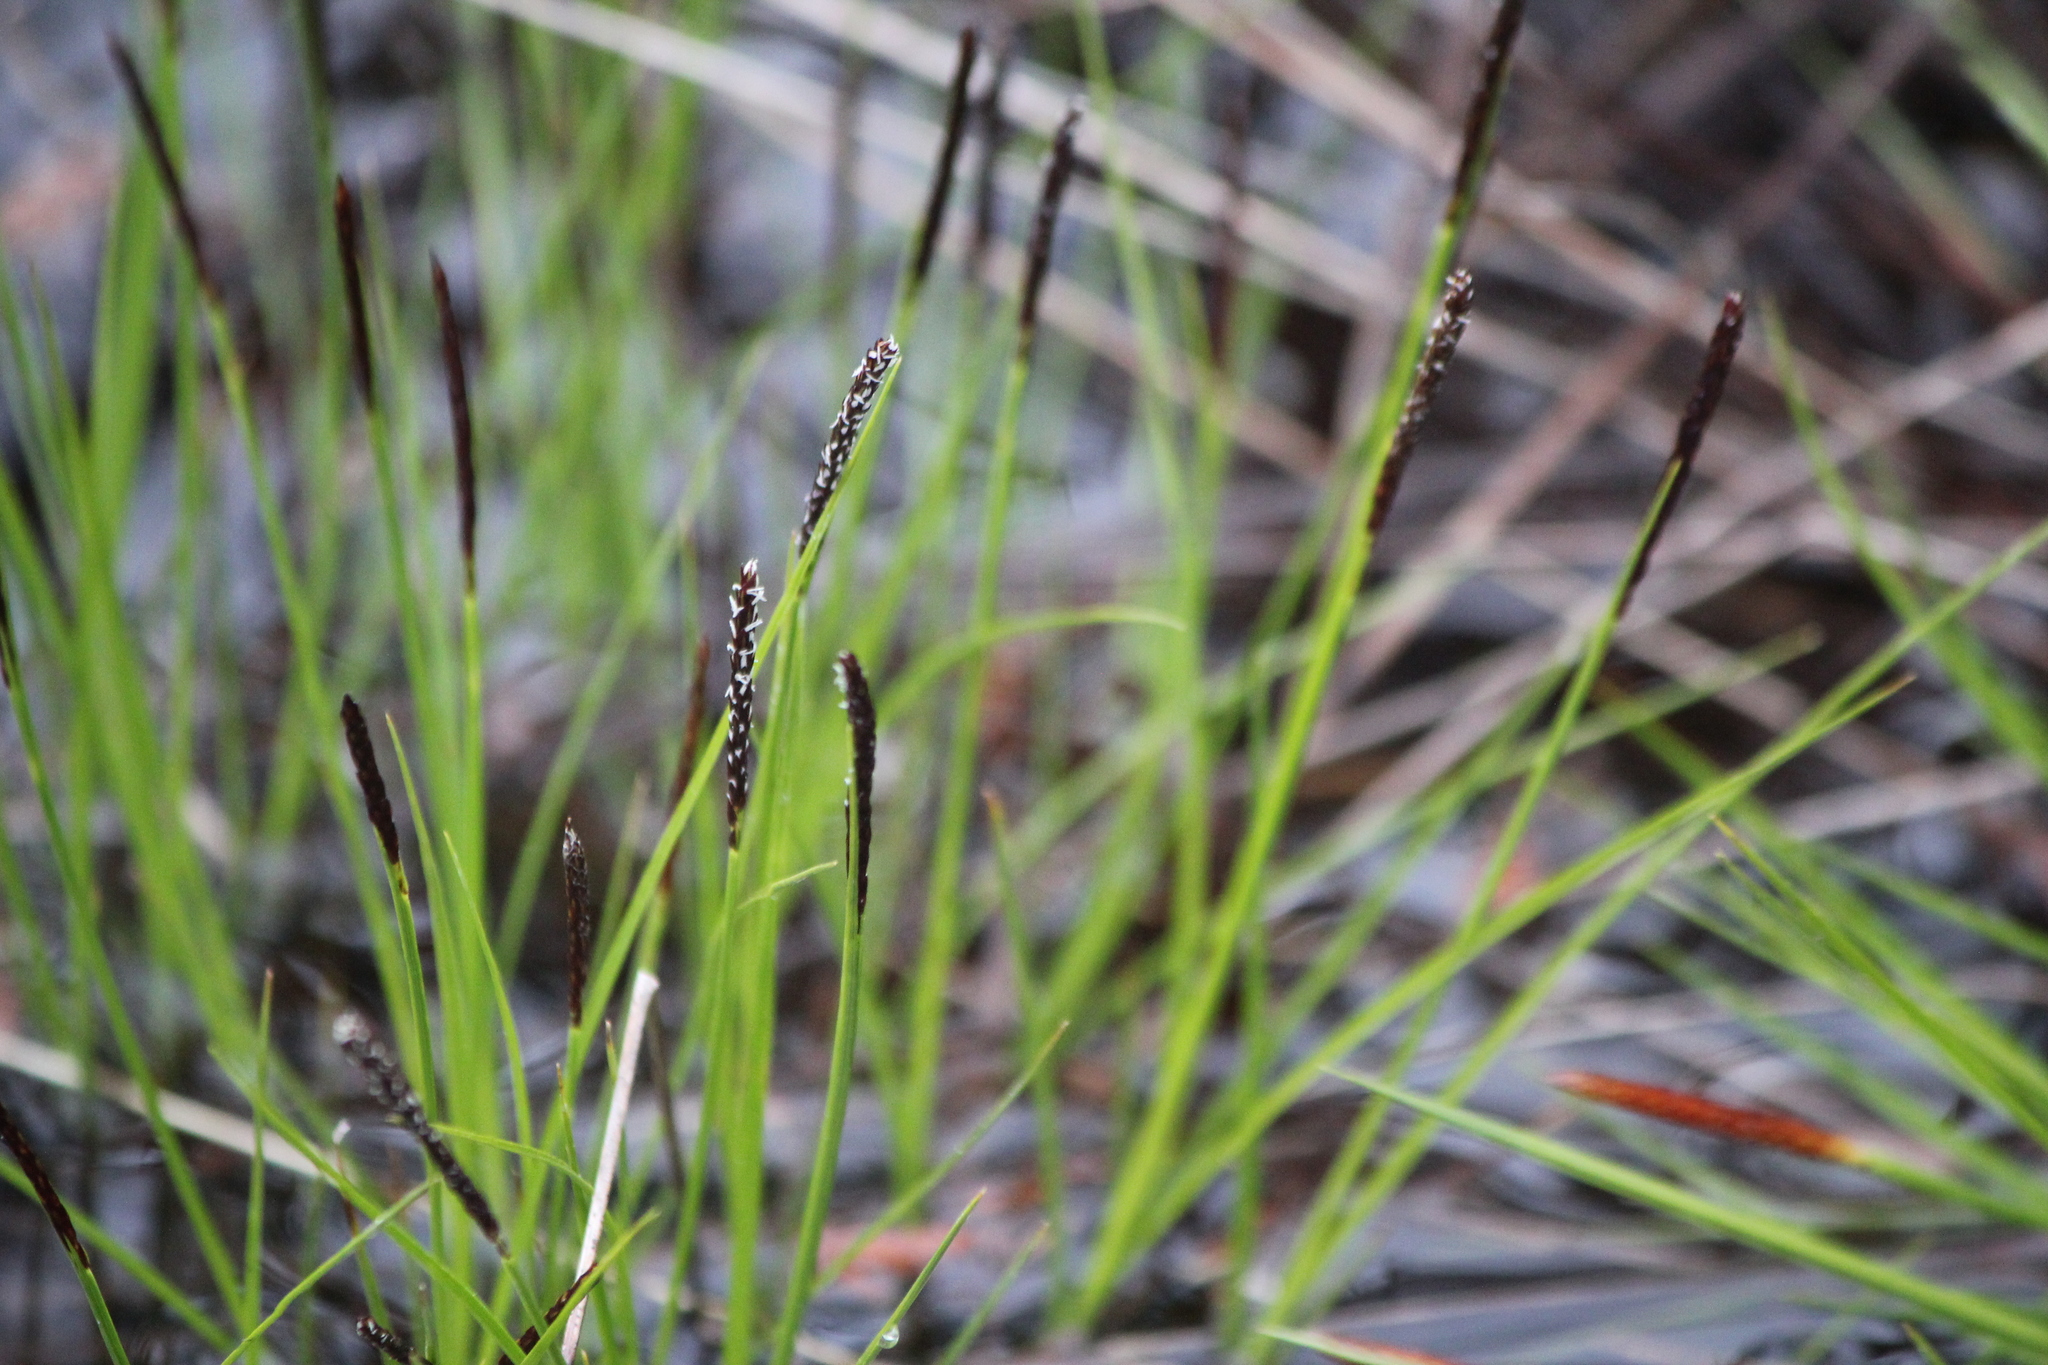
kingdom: Plantae
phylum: Tracheophyta
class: Liliopsida
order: Poales
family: Cyperaceae
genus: Carex
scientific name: Carex scirpoidea
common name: Canada single-spike sedge
